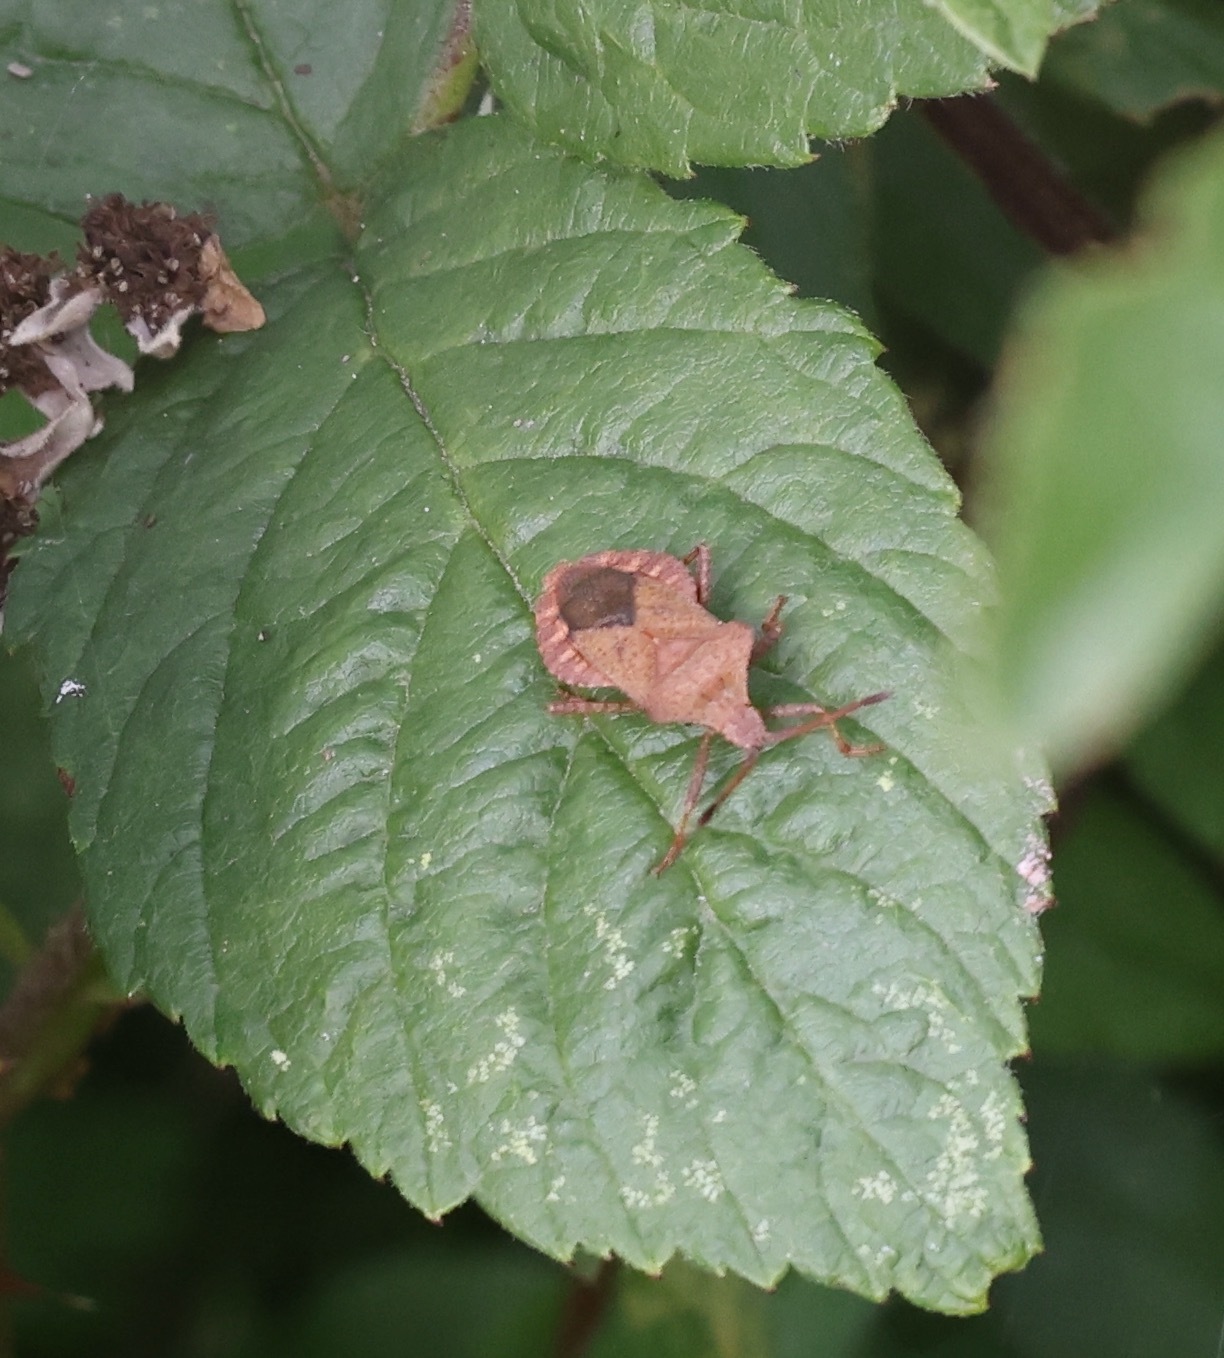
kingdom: Animalia
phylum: Arthropoda
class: Insecta
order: Hemiptera
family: Coreidae
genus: Coreus
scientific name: Coreus marginatus
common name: Dock bug
